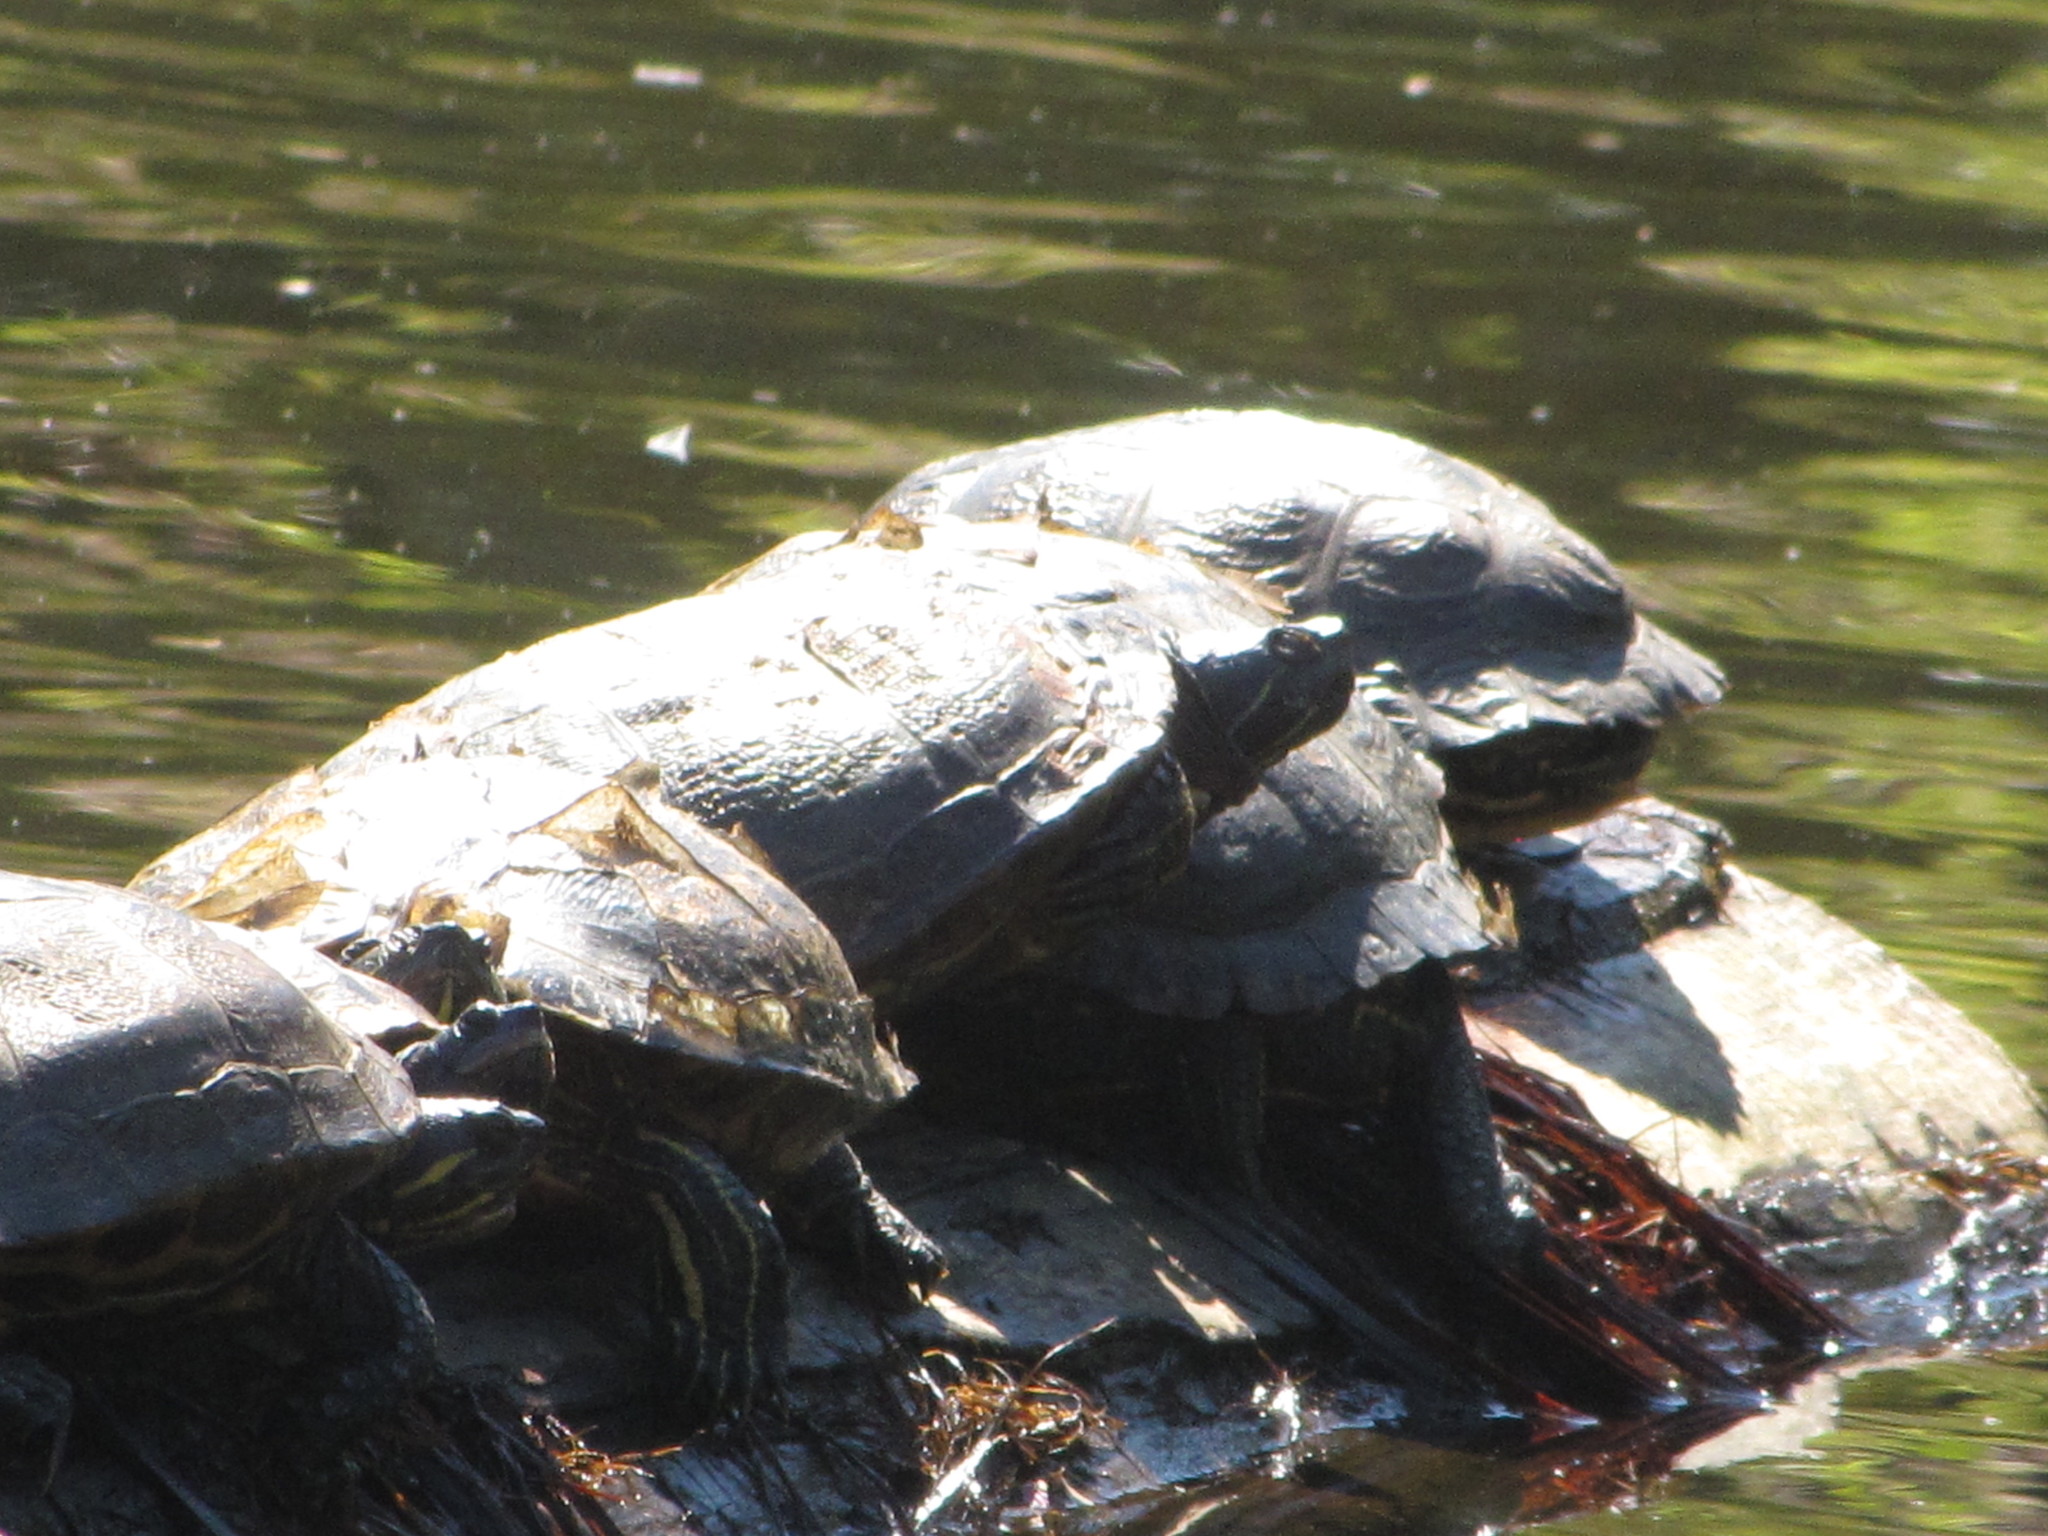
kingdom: Animalia
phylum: Chordata
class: Testudines
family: Emydidae
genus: Trachemys
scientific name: Trachemys scripta
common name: Slider
